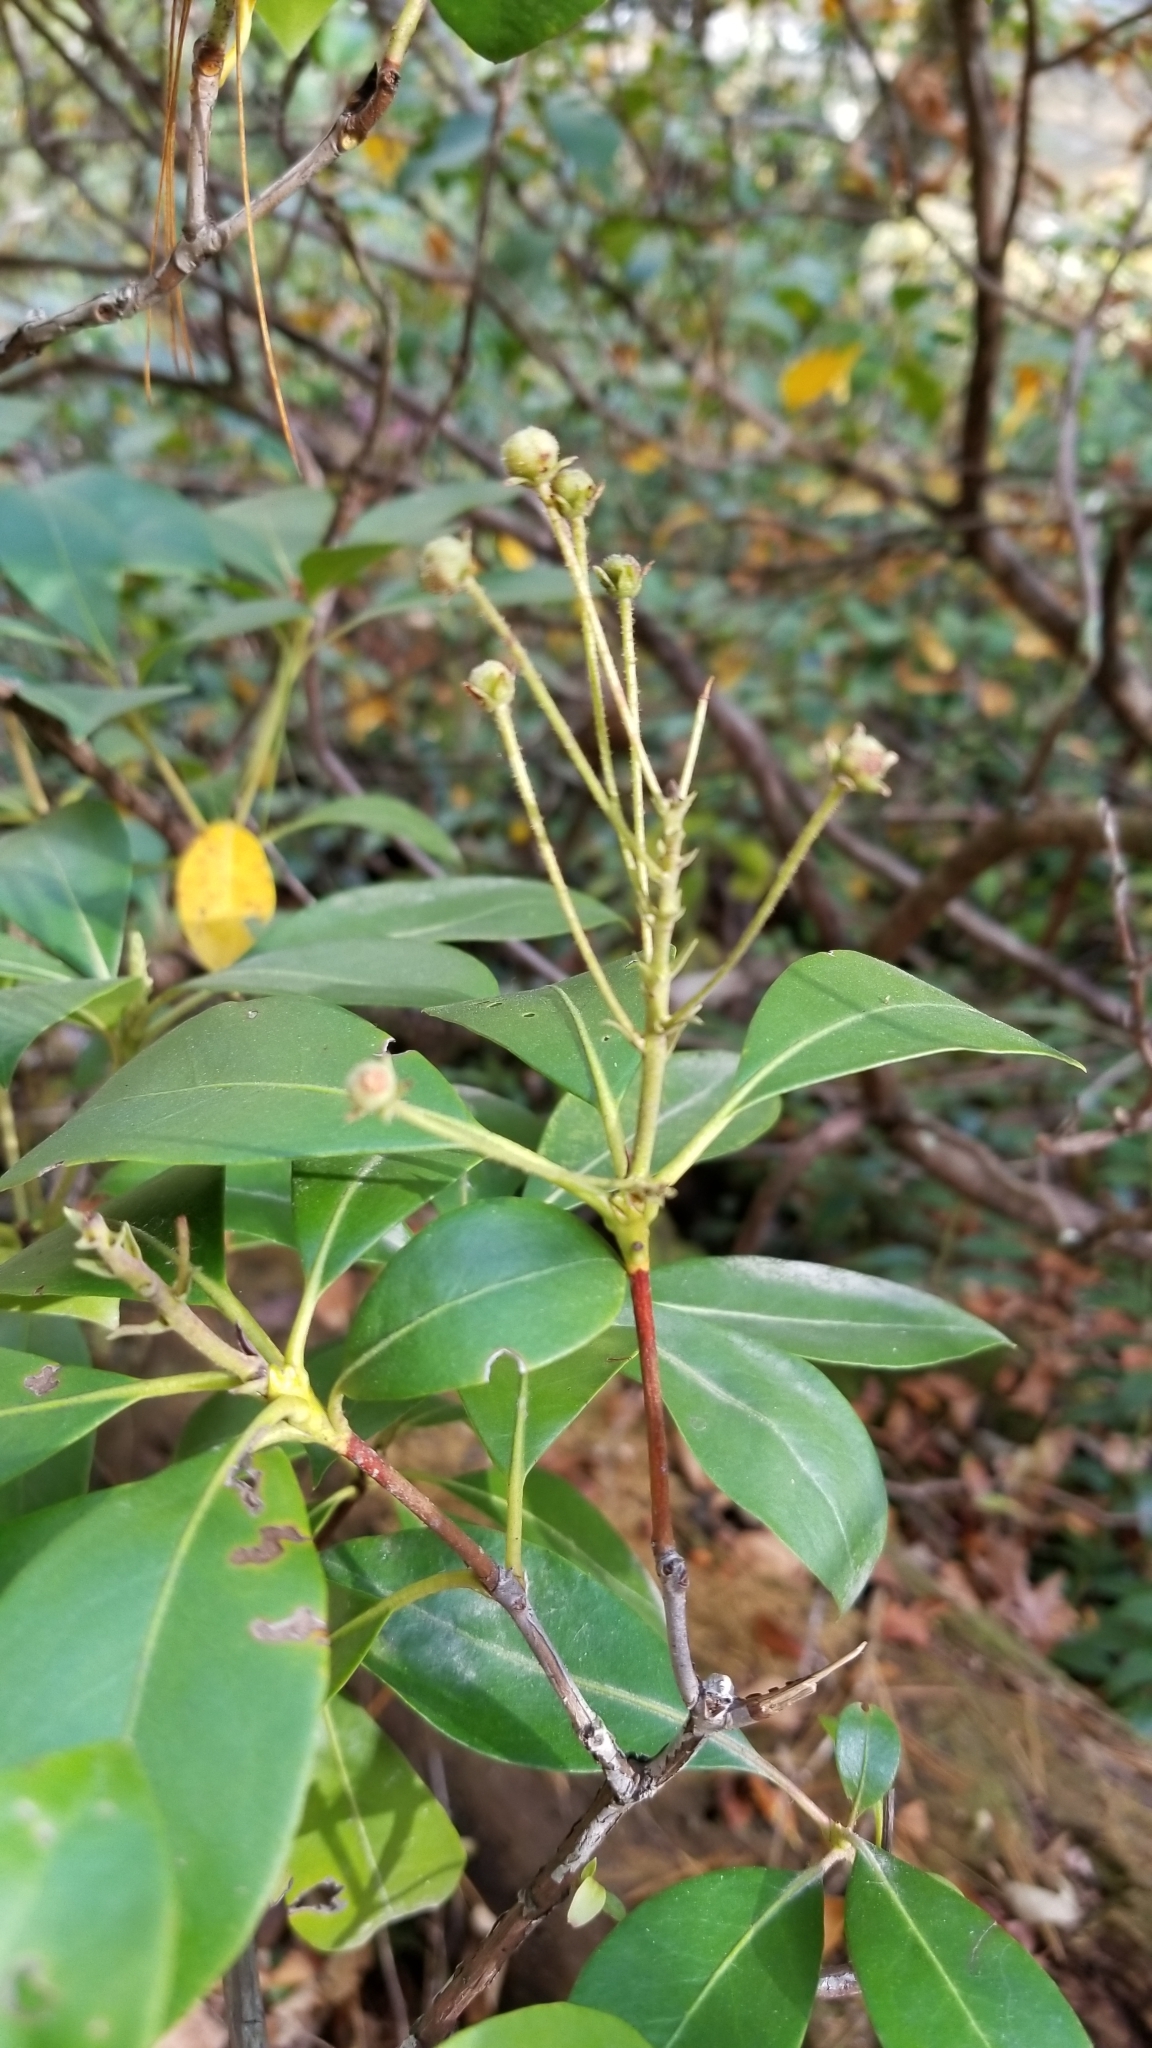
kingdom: Plantae
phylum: Tracheophyta
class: Magnoliopsida
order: Ericales
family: Ericaceae
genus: Kalmia
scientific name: Kalmia latifolia
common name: Mountain-laurel
